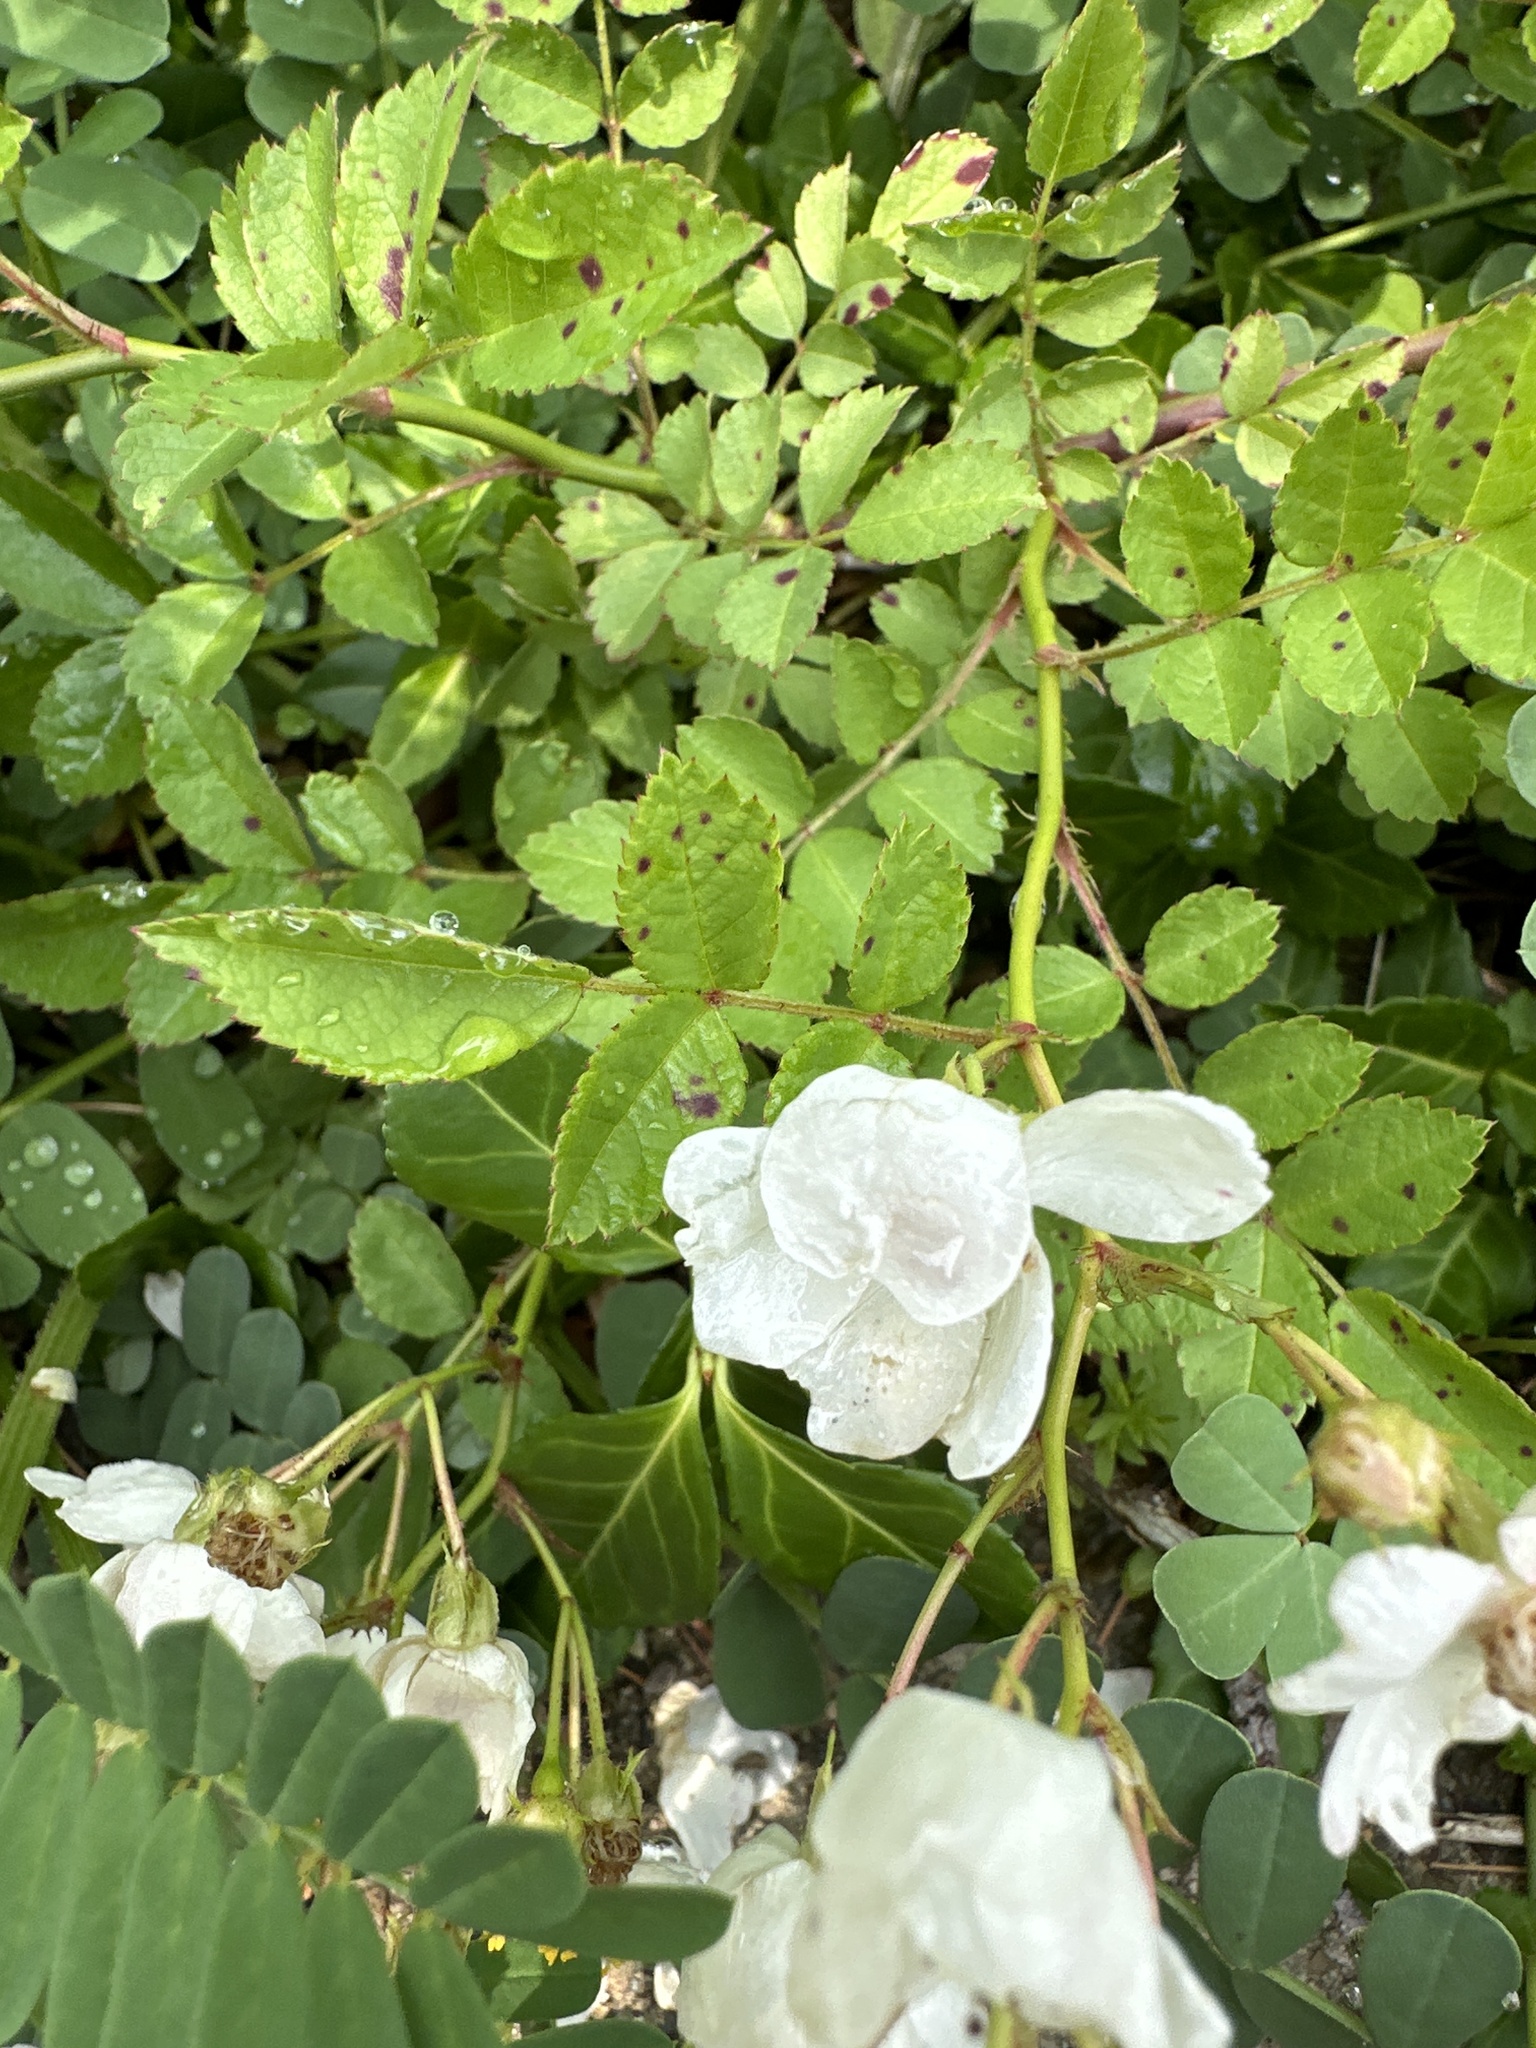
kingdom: Plantae
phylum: Tracheophyta
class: Magnoliopsida
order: Rosales
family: Rosaceae
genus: Rosa
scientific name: Rosa multiflora
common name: Multiflora rose
